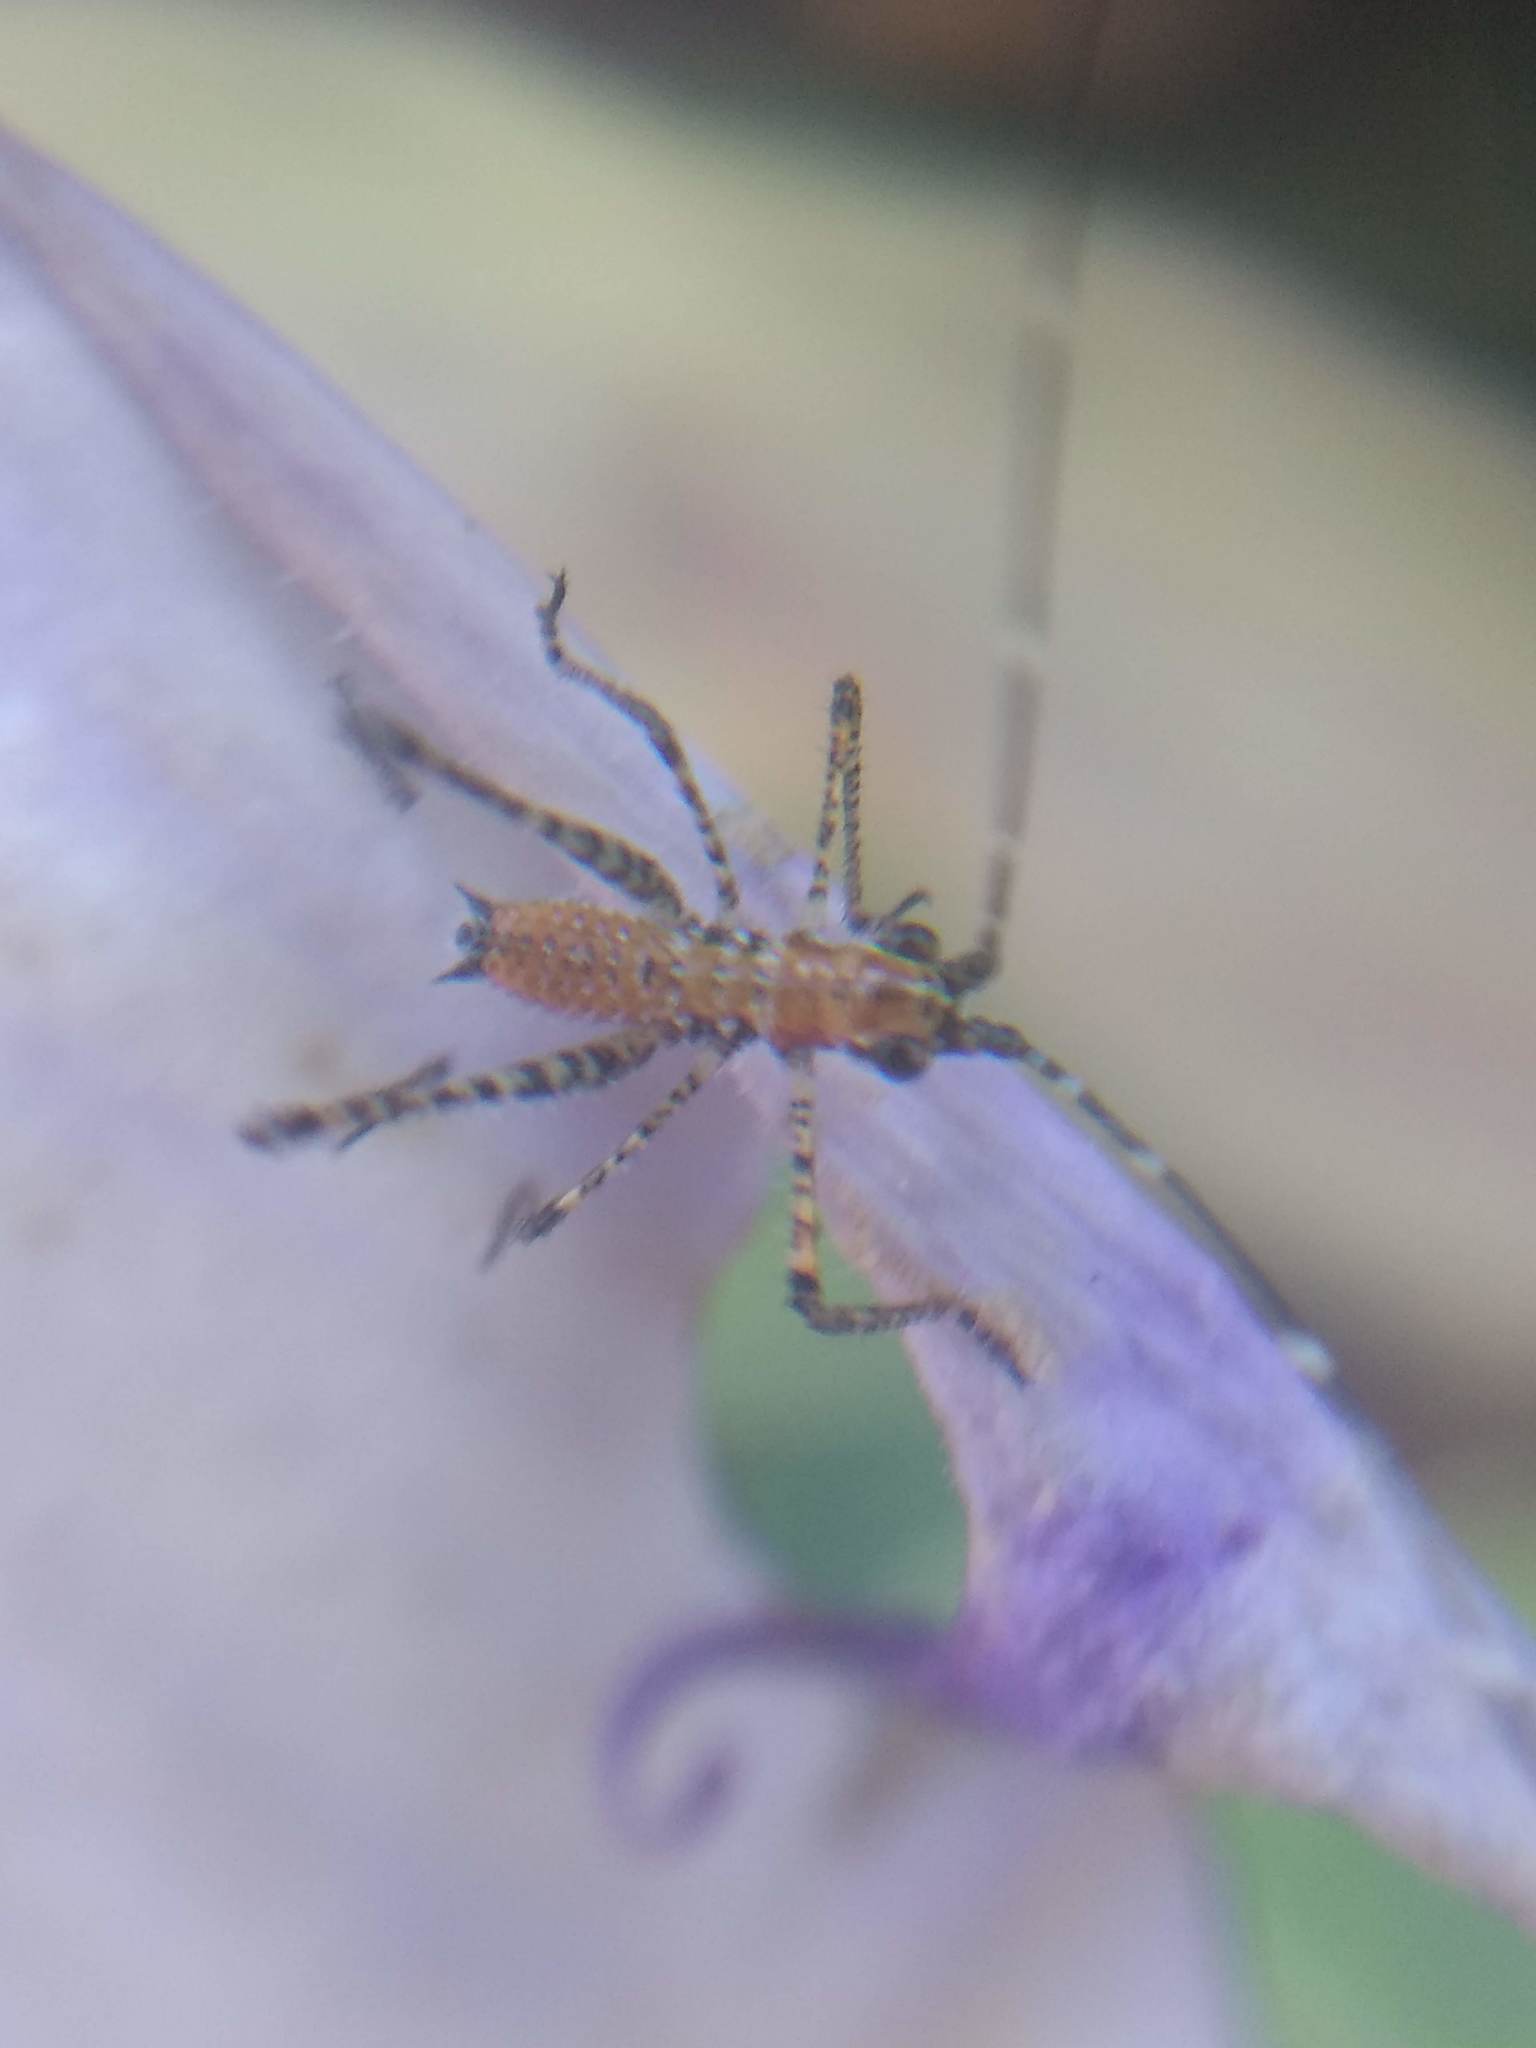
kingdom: Animalia
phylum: Arthropoda
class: Insecta
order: Orthoptera
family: Tettigoniidae
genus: Scudderia
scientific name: Scudderia
